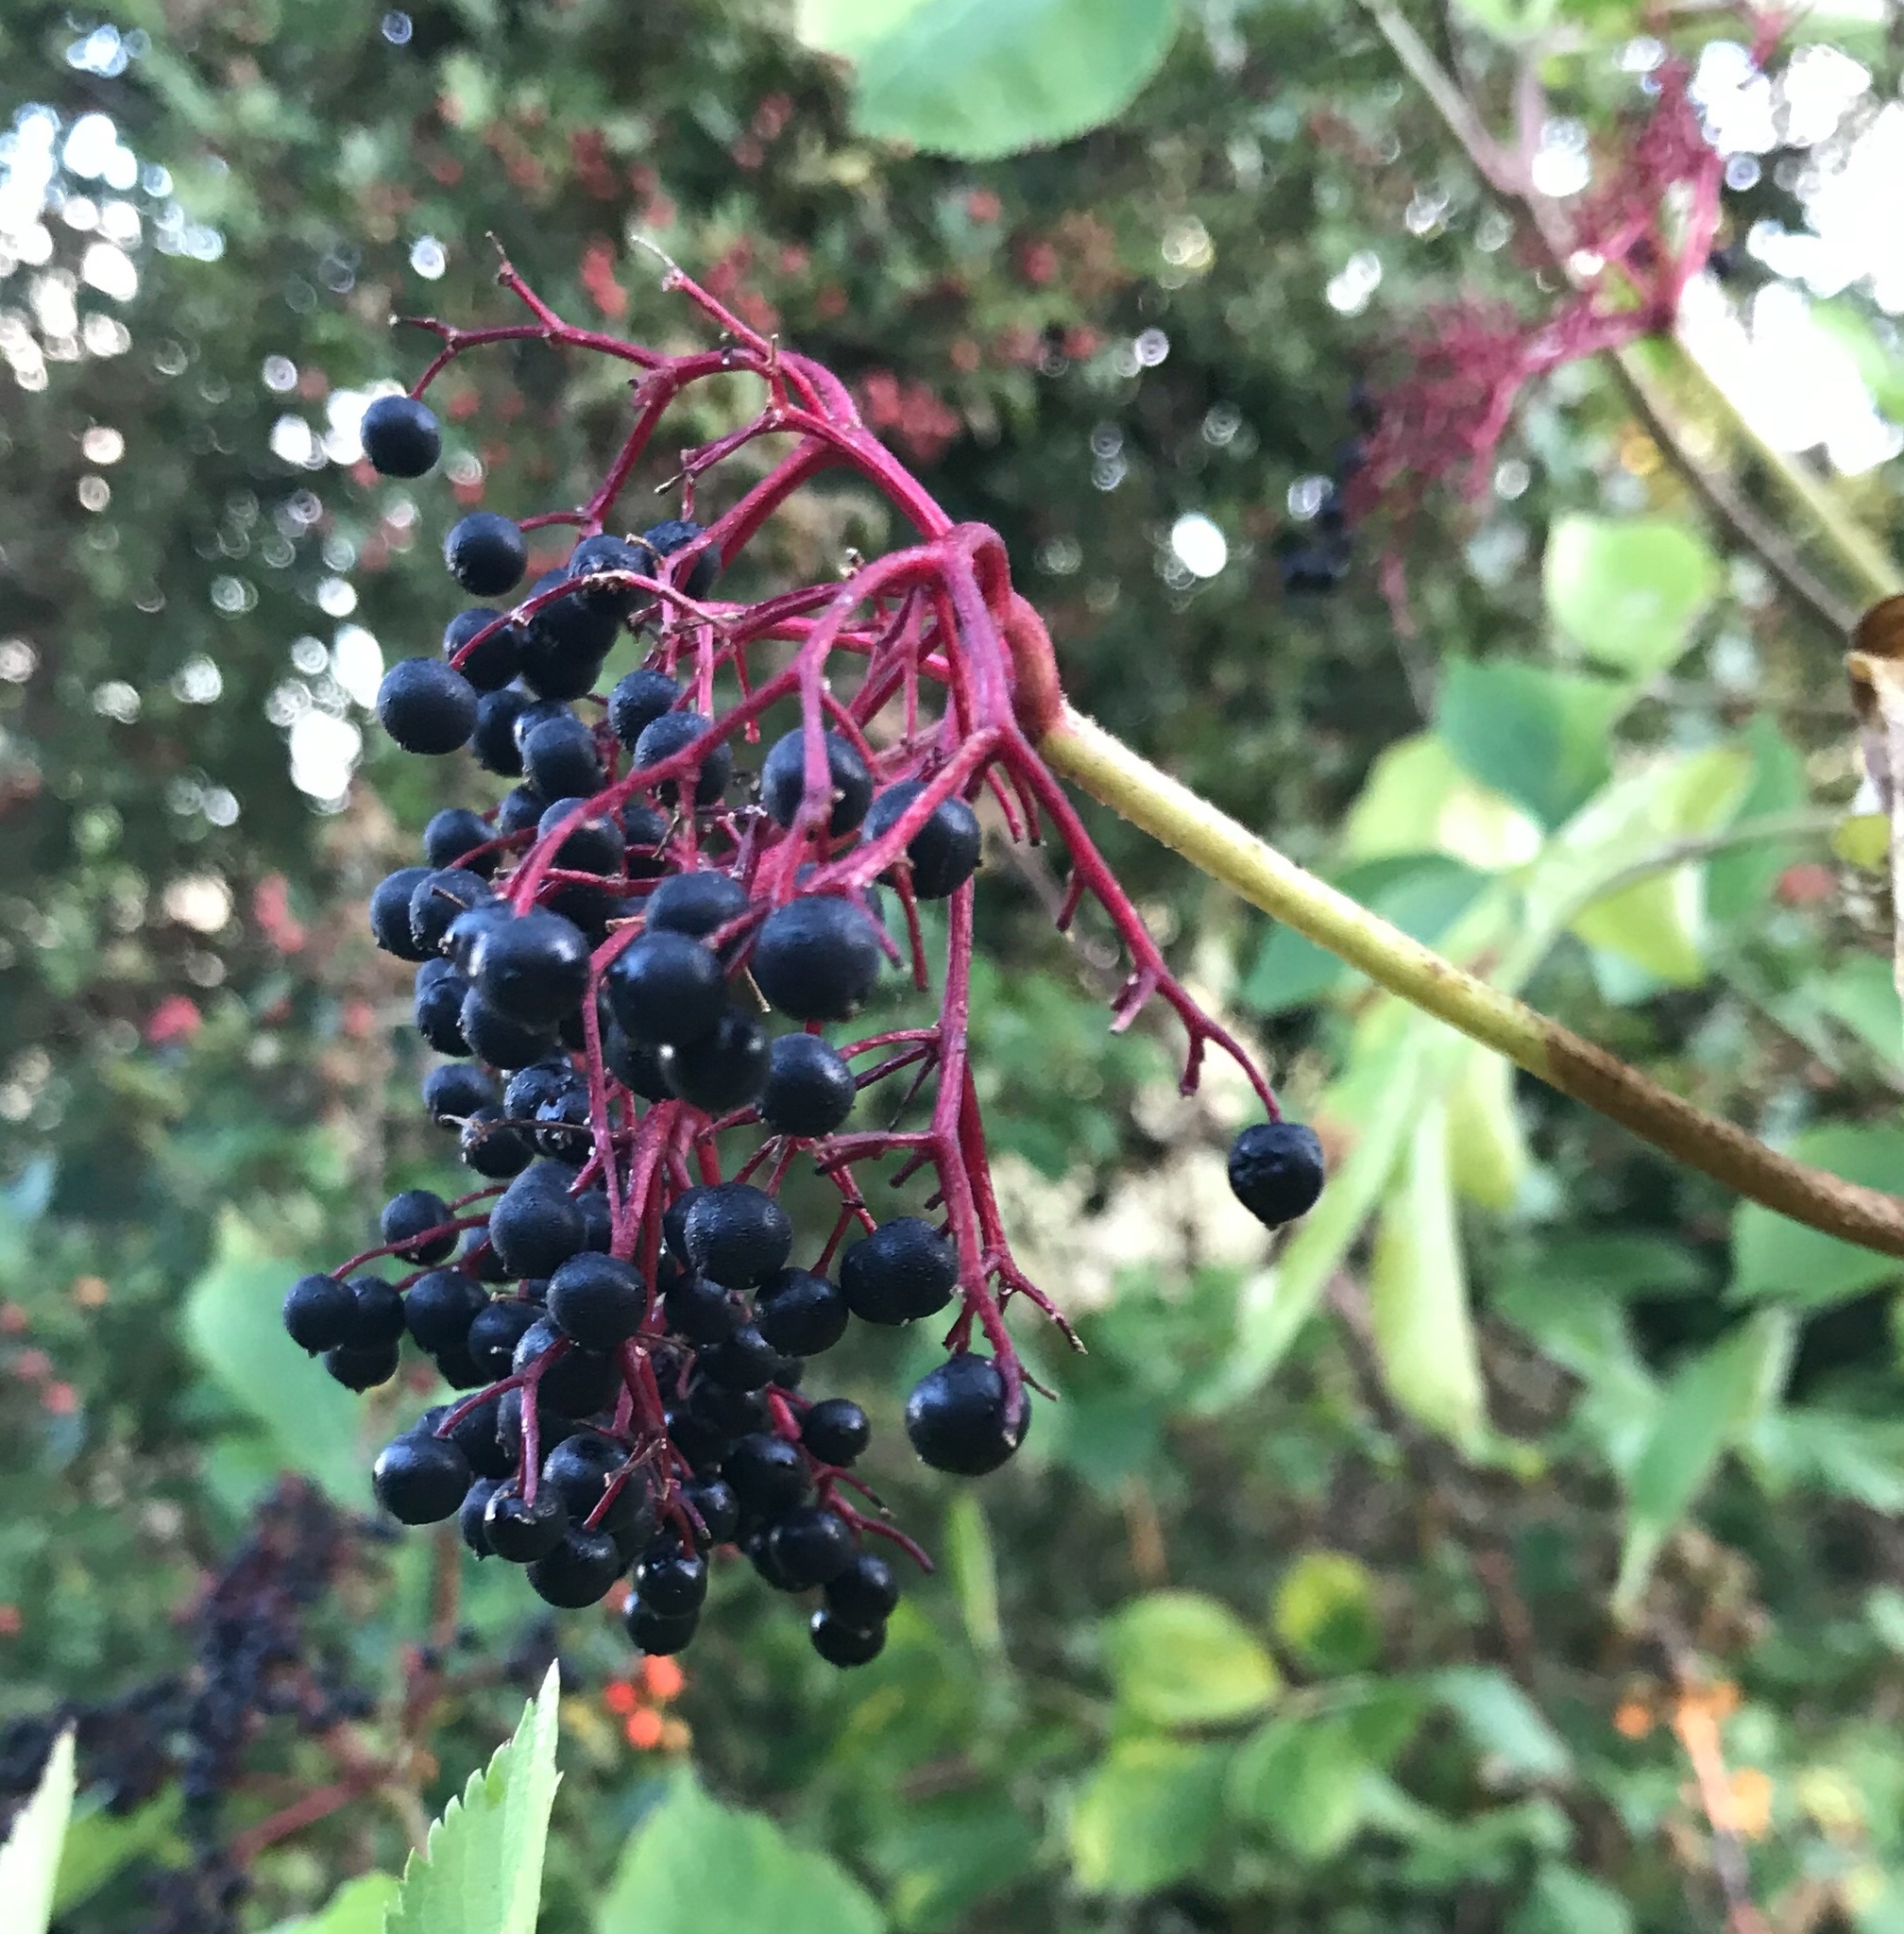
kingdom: Plantae
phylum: Tracheophyta
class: Magnoliopsida
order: Dipsacales
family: Viburnaceae
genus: Sambucus
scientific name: Sambucus nigra
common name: Elder
